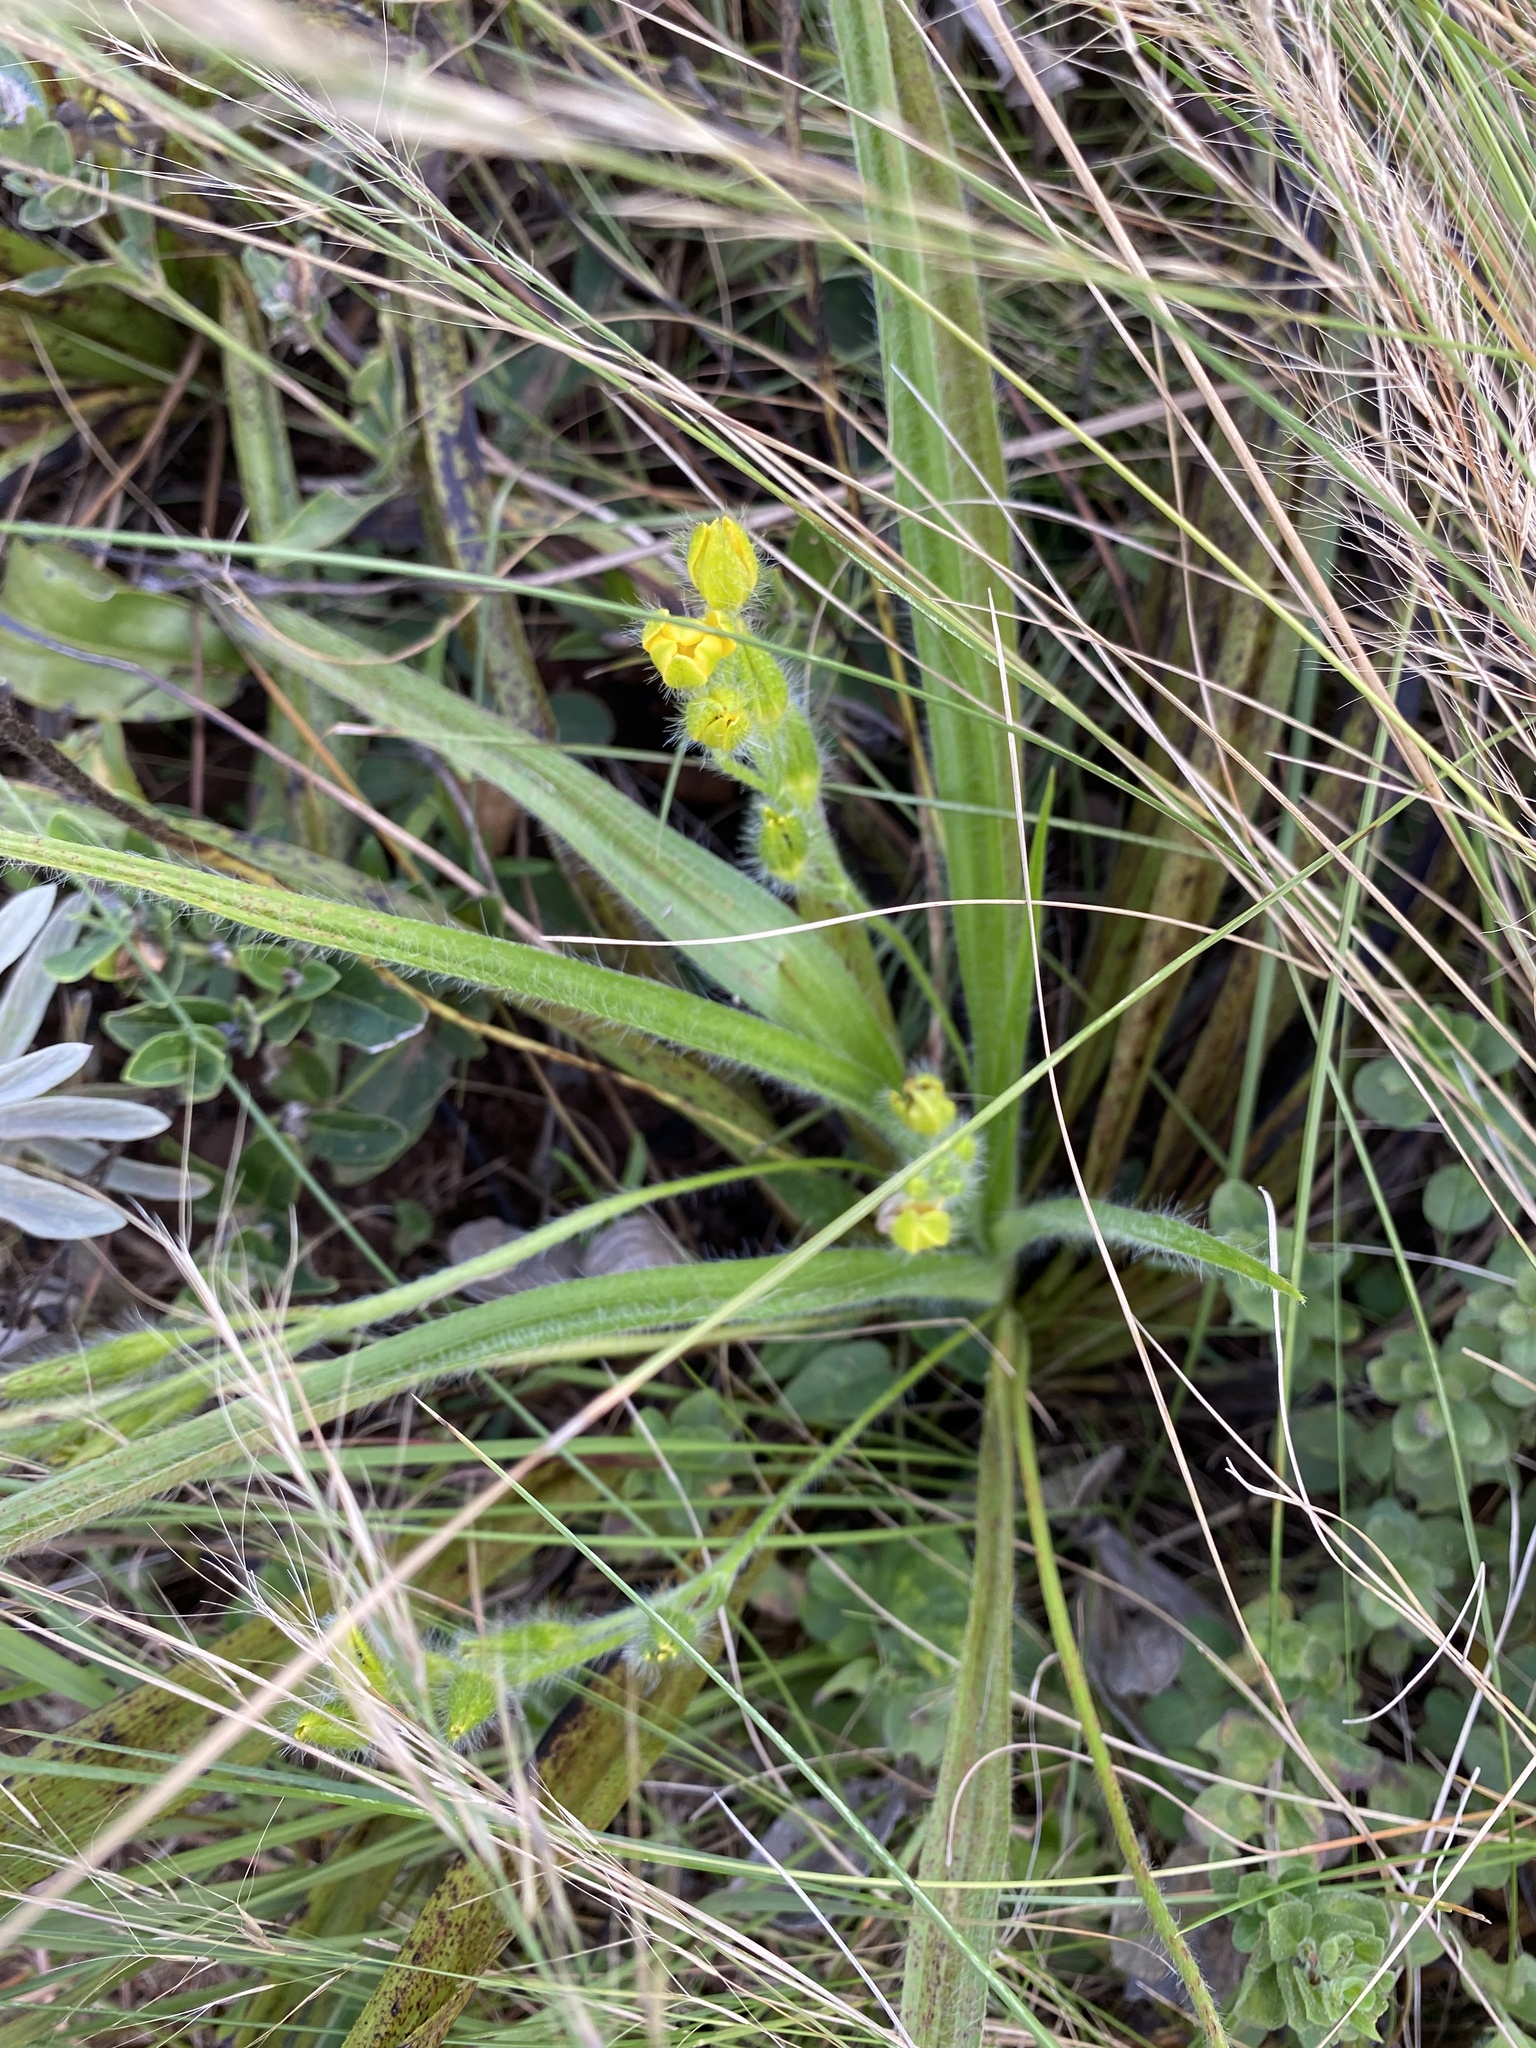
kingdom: Plantae
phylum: Tracheophyta
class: Liliopsida
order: Asparagales
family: Hypoxidaceae
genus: Hypoxis
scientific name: Hypoxis hemerocallidea
